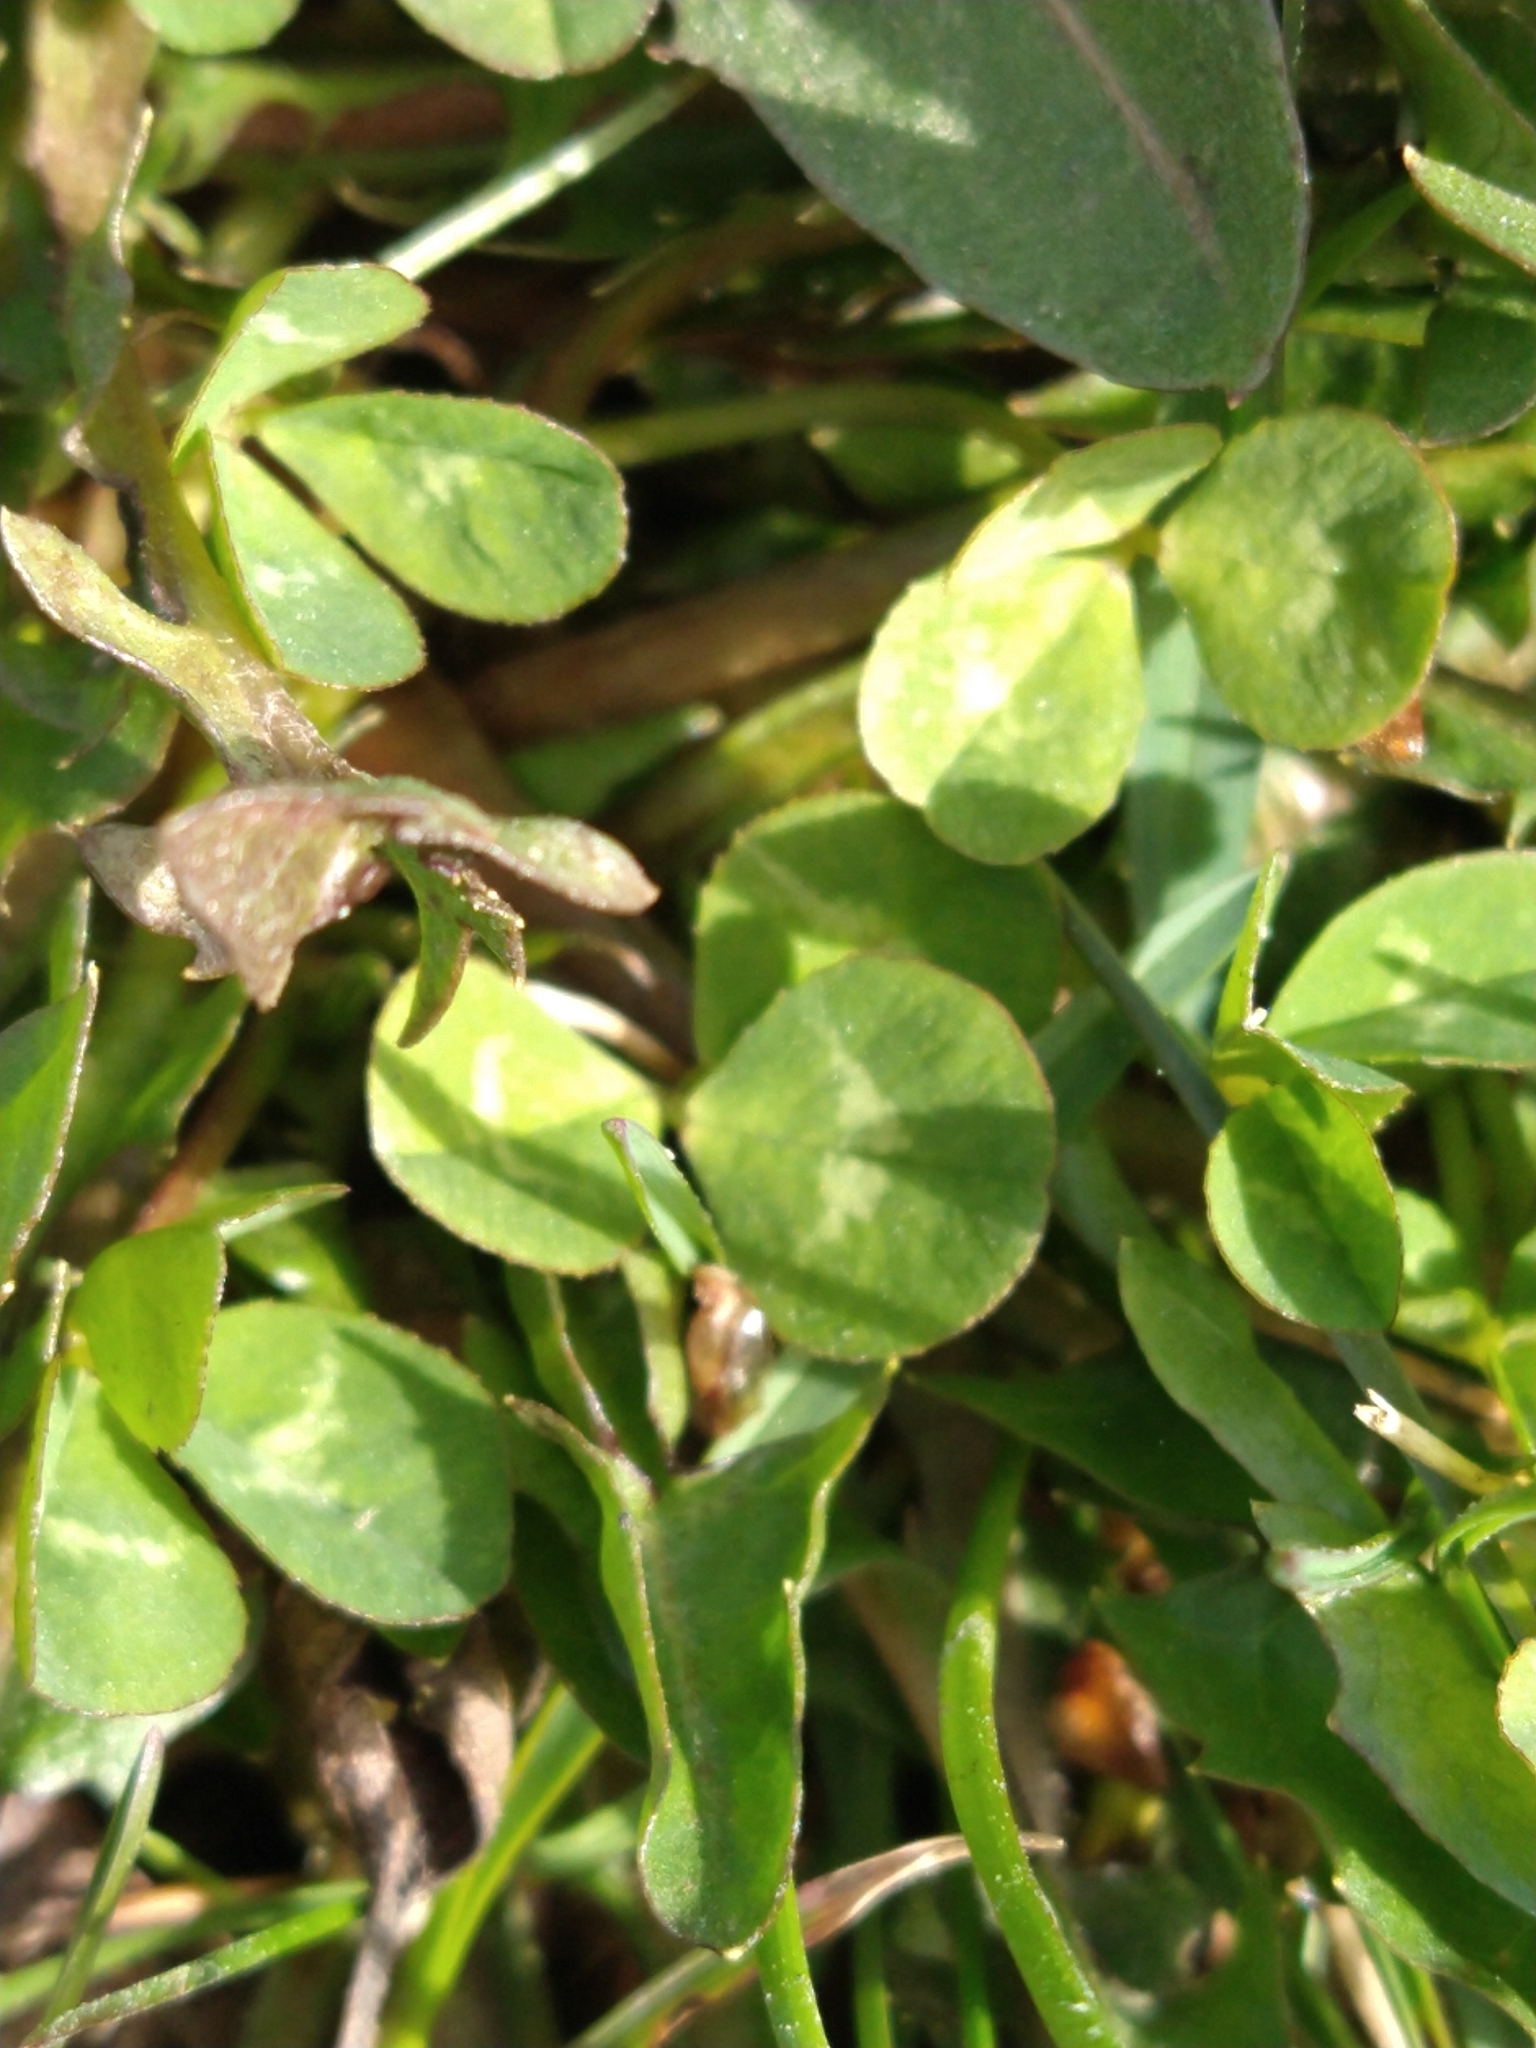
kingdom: Plantae
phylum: Tracheophyta
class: Magnoliopsida
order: Fabales
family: Fabaceae
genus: Trifolium
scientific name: Trifolium repens
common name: White clover
